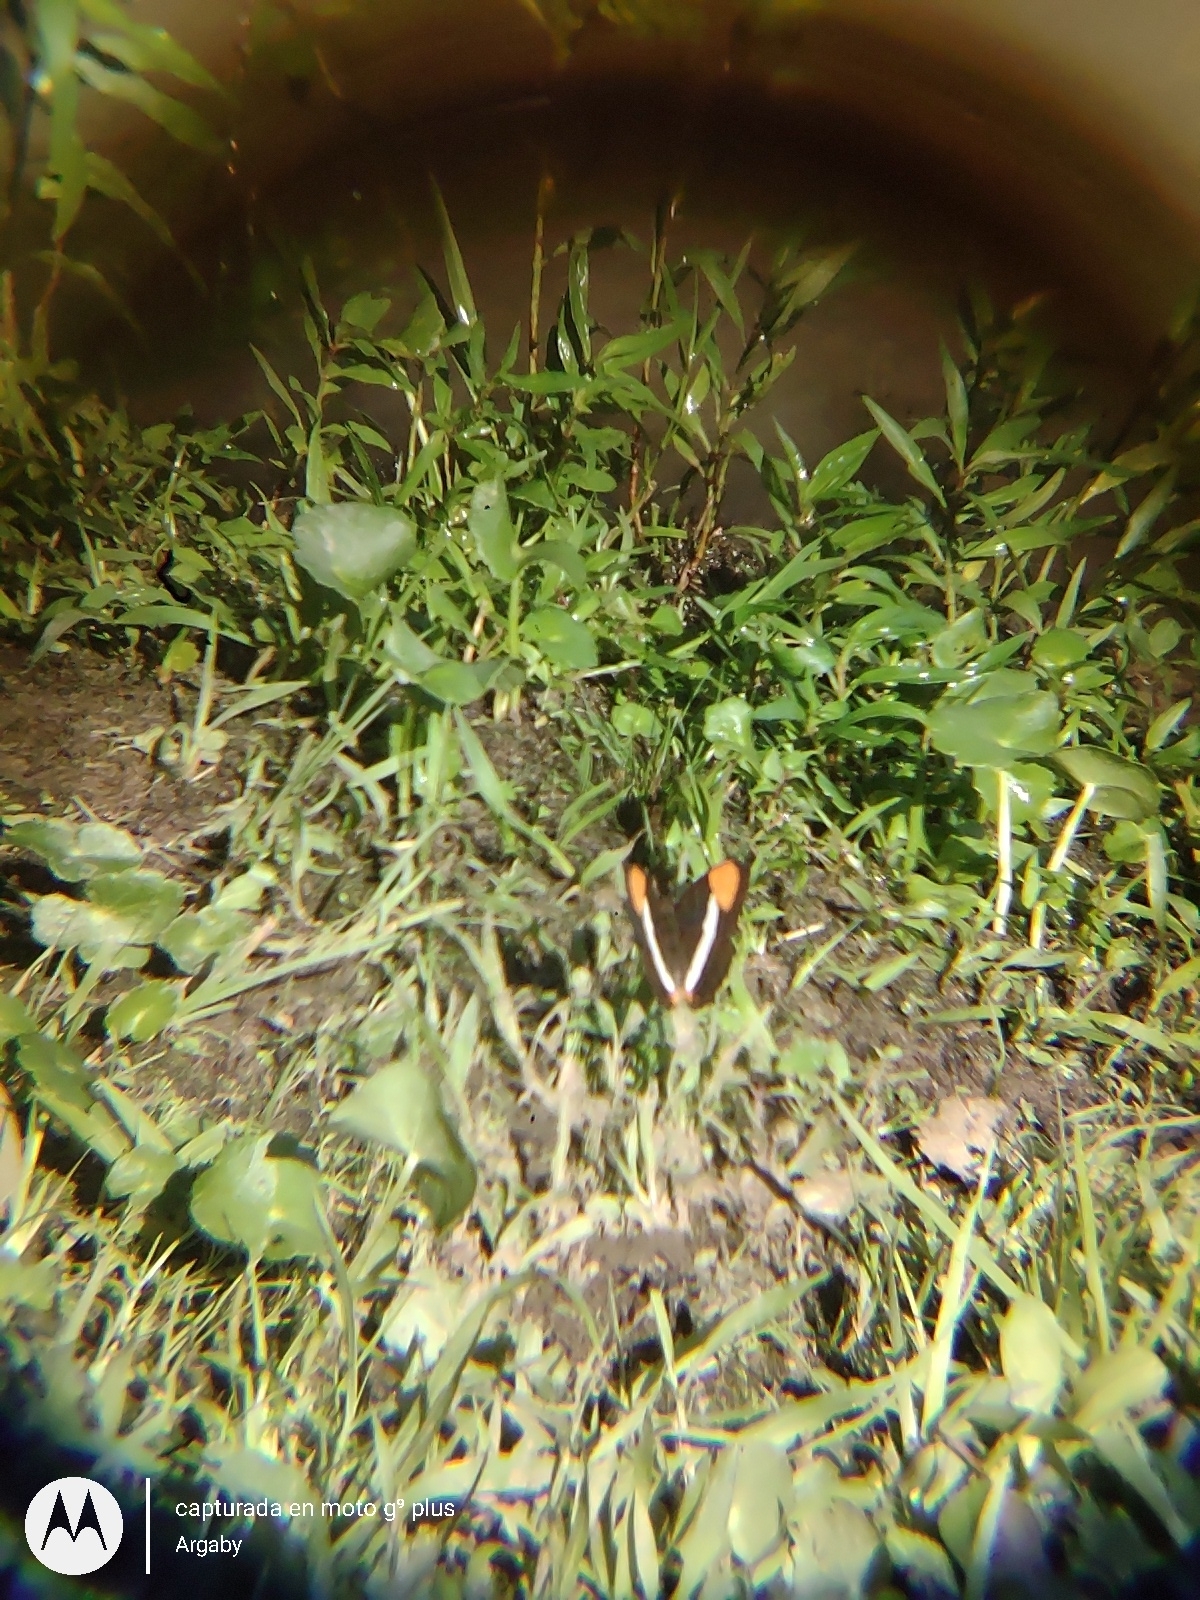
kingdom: Animalia
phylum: Arthropoda
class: Insecta
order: Lepidoptera
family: Nymphalidae
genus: Limenitis
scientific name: Limenitis syma
